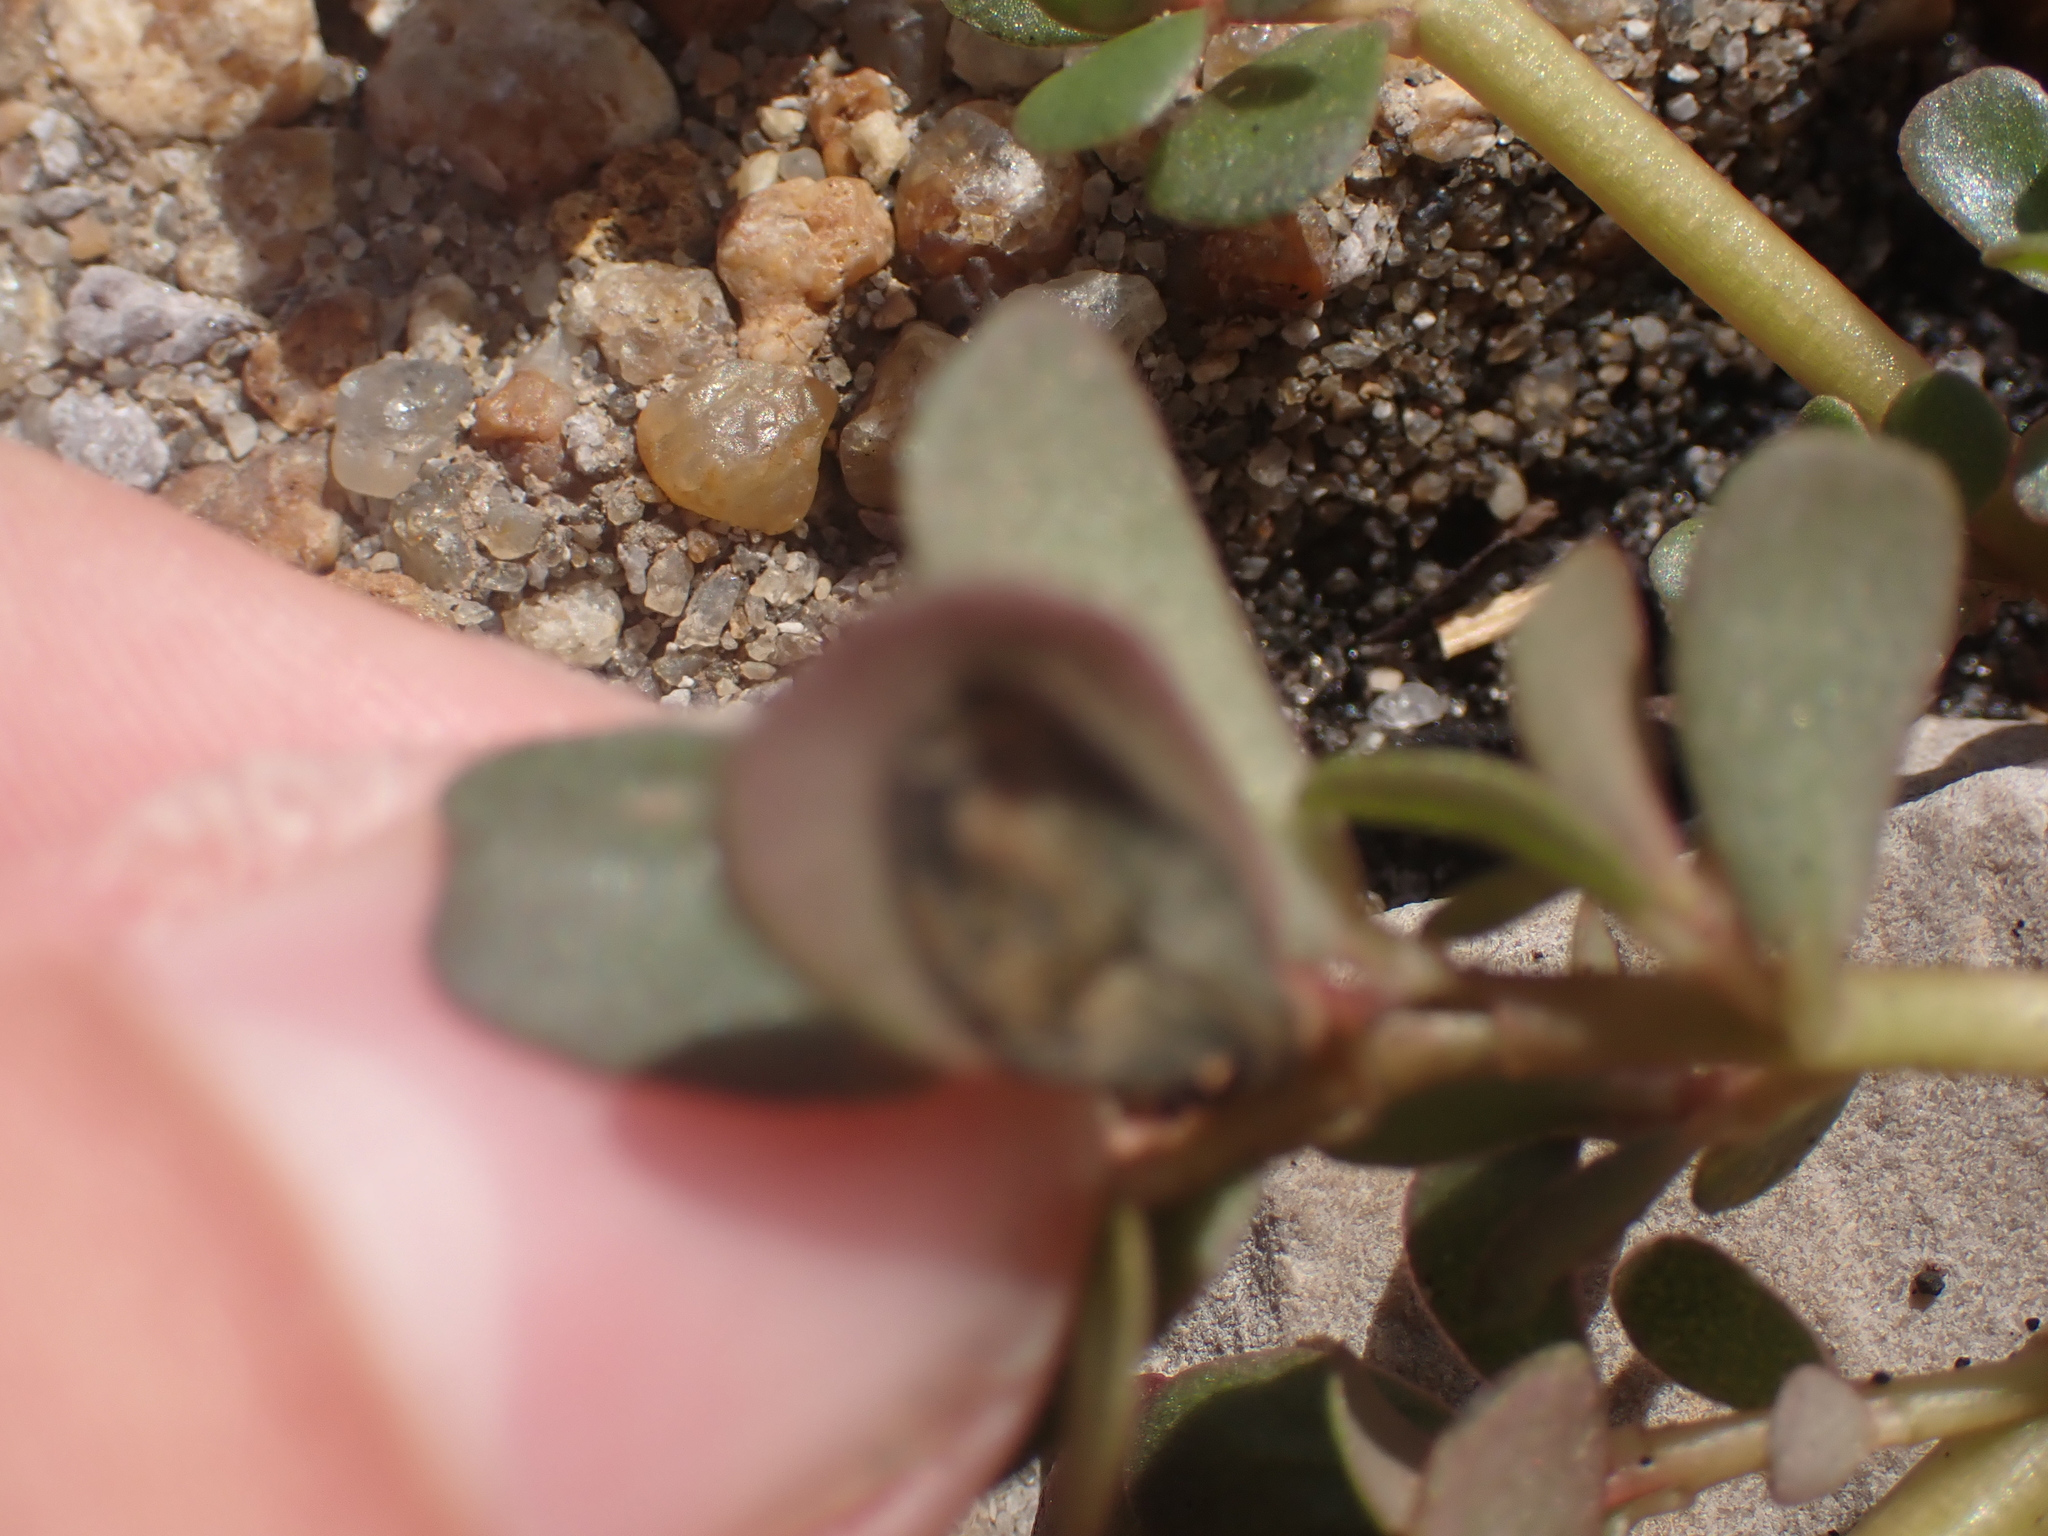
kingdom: Plantae
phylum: Tracheophyta
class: Magnoliopsida
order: Caryophyllales
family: Portulacaceae
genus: Portulaca
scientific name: Portulaca oleracea
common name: Common purslane
